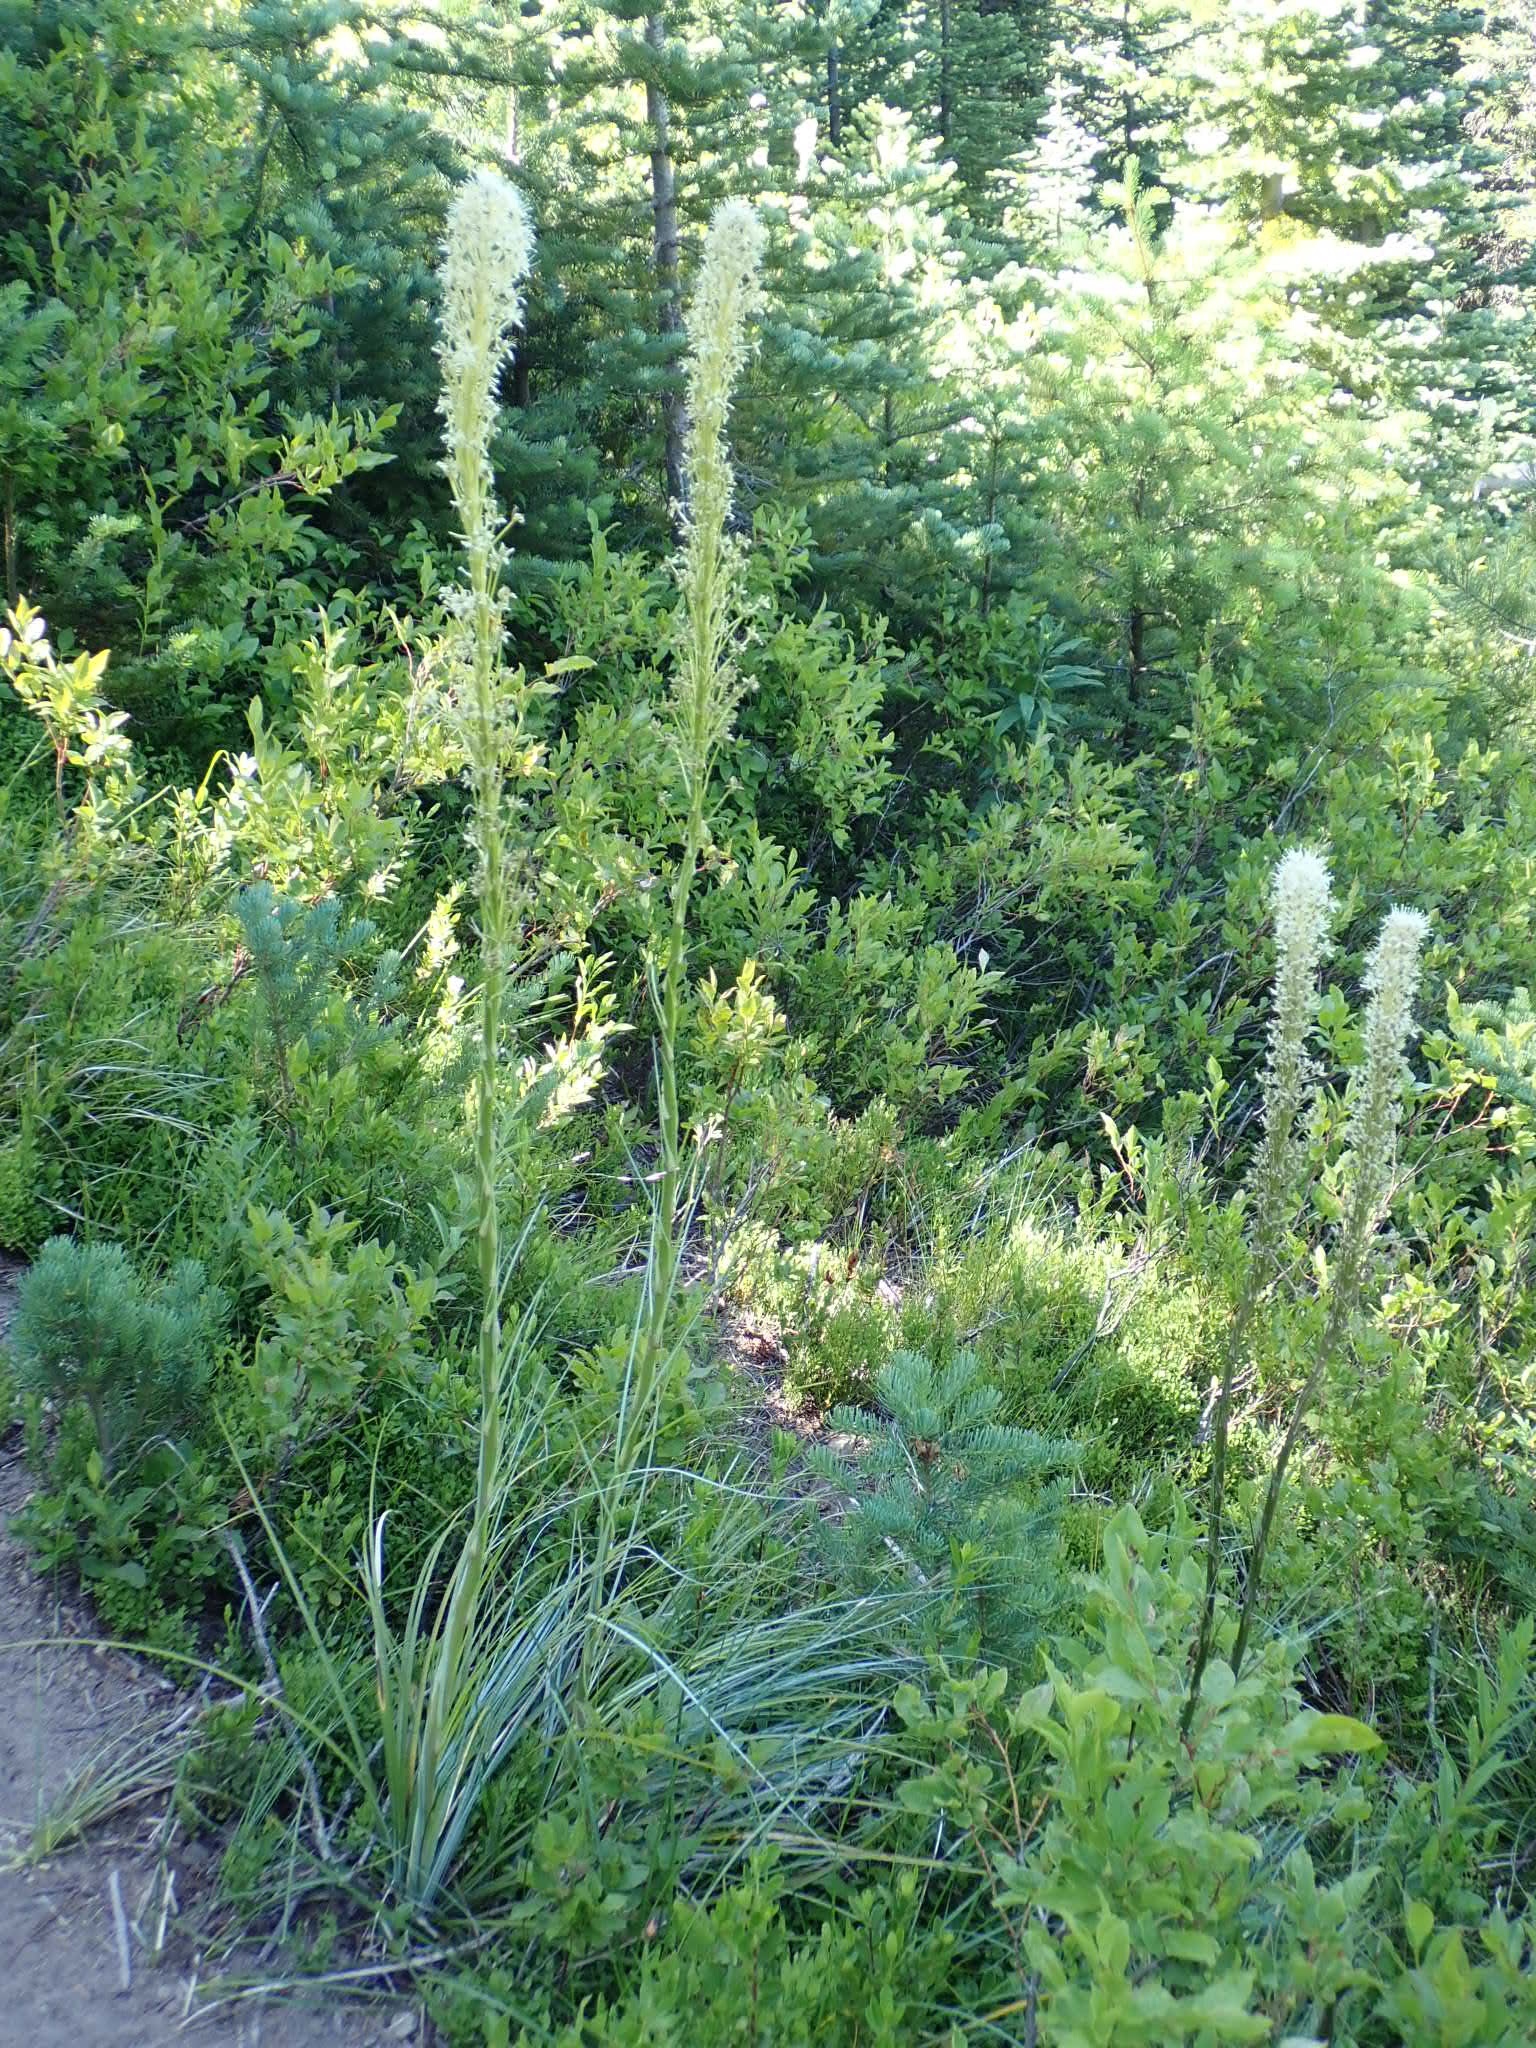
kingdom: Plantae
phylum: Tracheophyta
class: Liliopsida
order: Liliales
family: Melanthiaceae
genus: Xerophyllum
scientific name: Xerophyllum tenax
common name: Bear-grass
